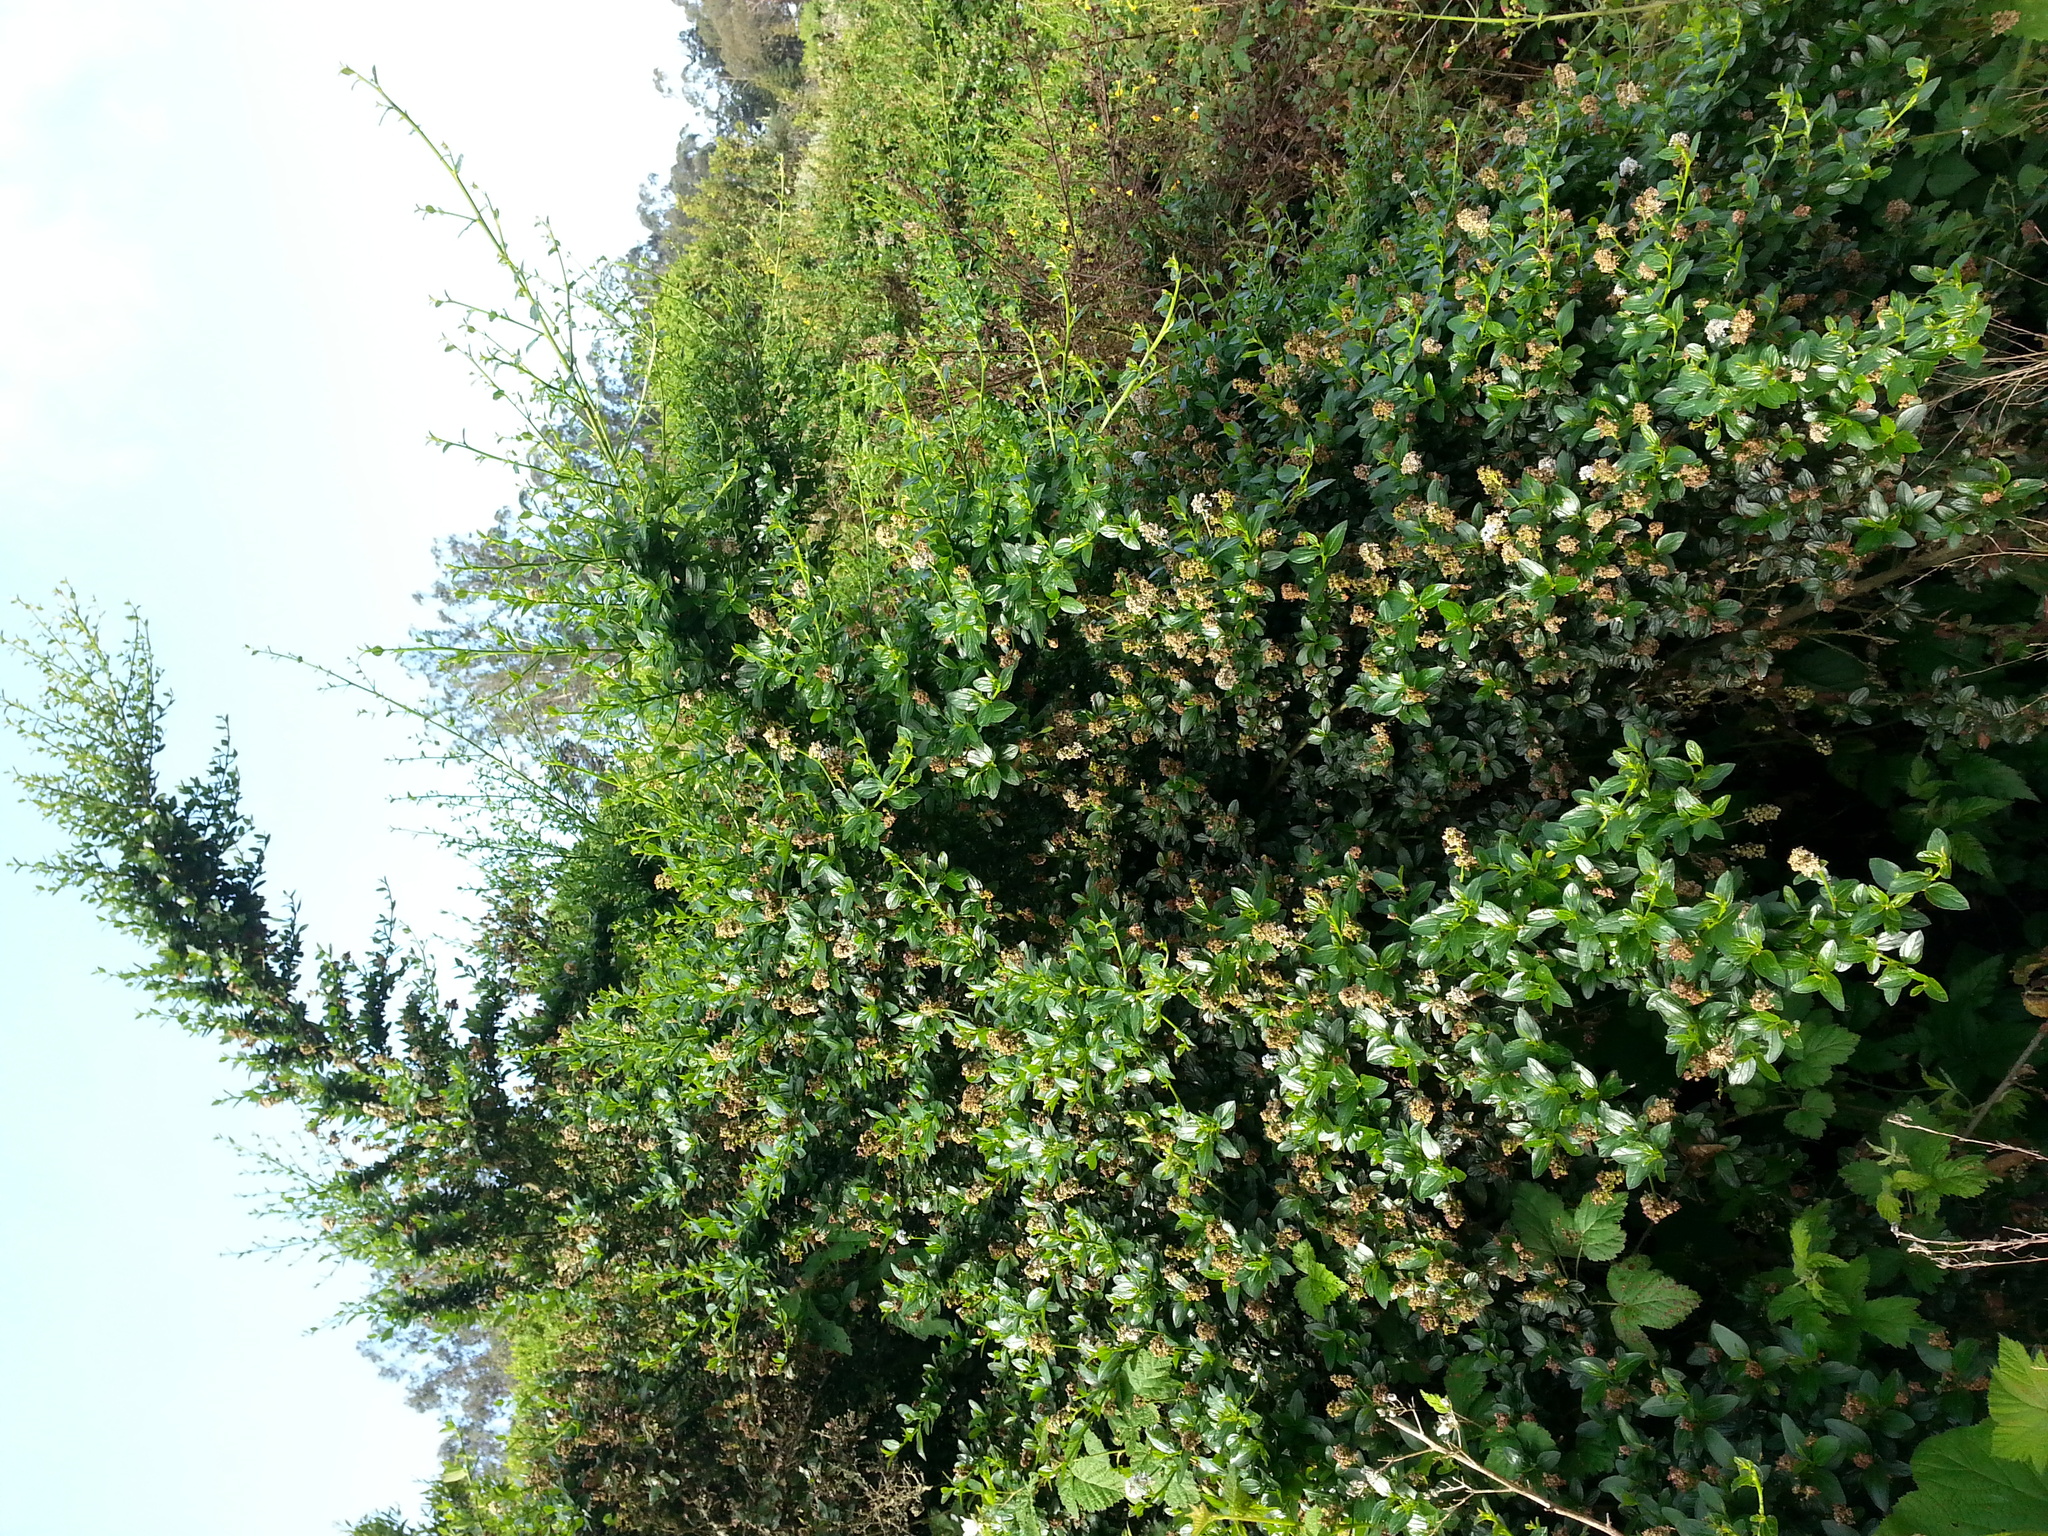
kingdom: Plantae
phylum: Tracheophyta
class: Magnoliopsida
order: Rosales
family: Rhamnaceae
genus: Ceanothus
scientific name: Ceanothus thyrsiflorus
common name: California-lilac
